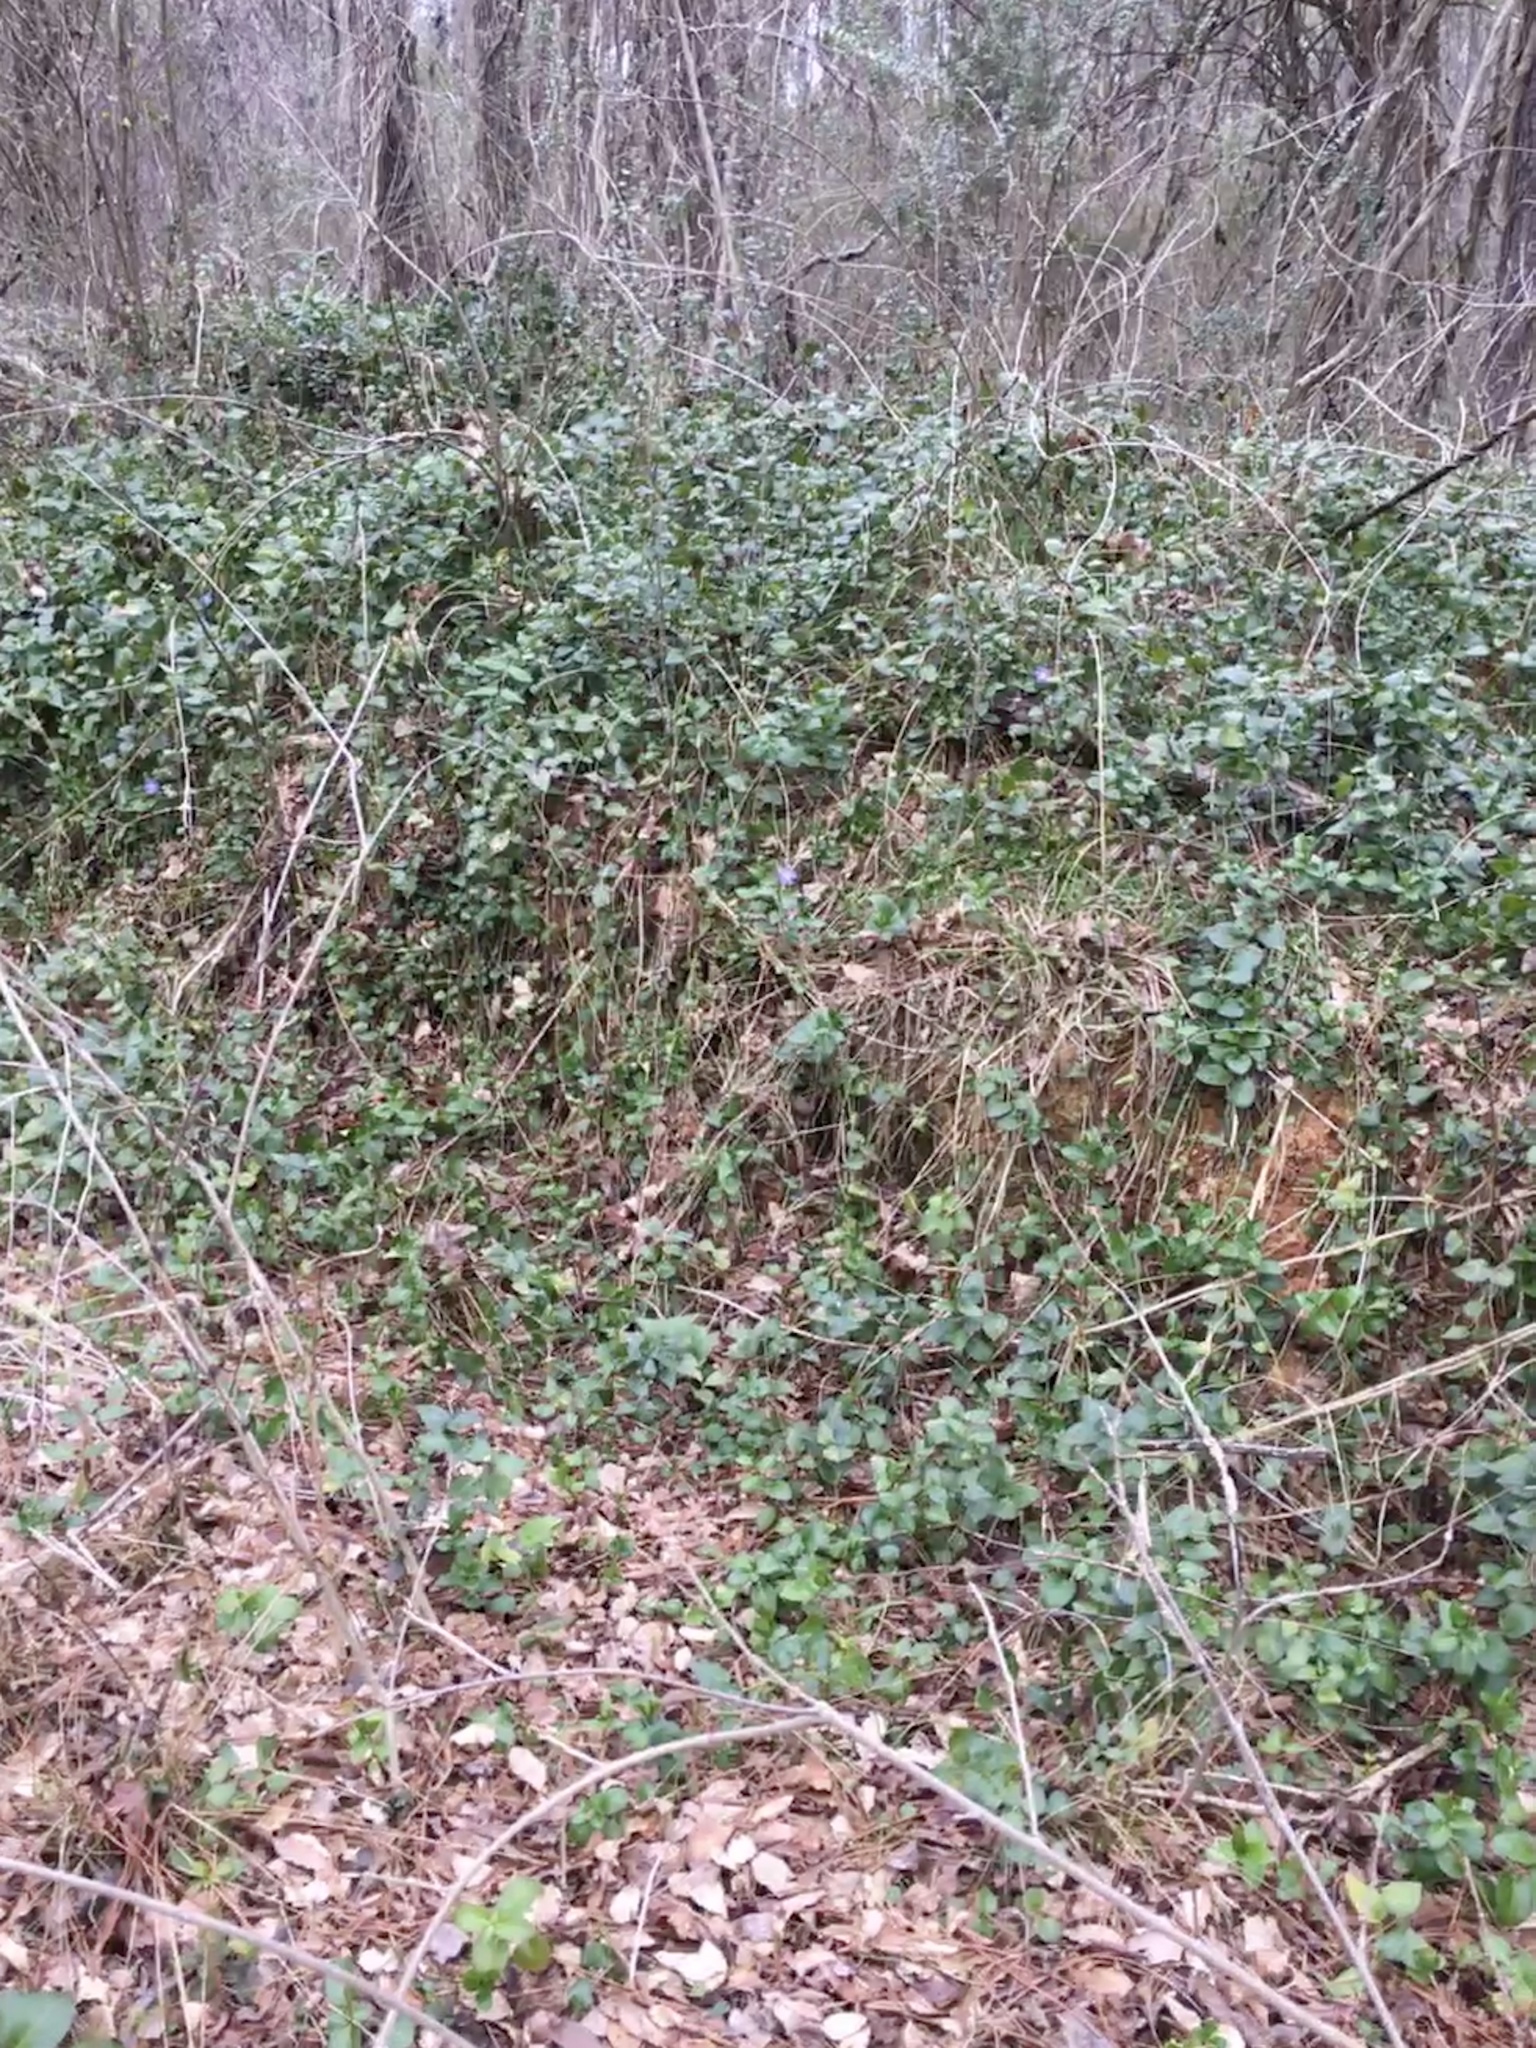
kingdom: Plantae
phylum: Tracheophyta
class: Magnoliopsida
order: Gentianales
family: Apocynaceae
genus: Vinca
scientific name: Vinca major
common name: Greater periwinkle
